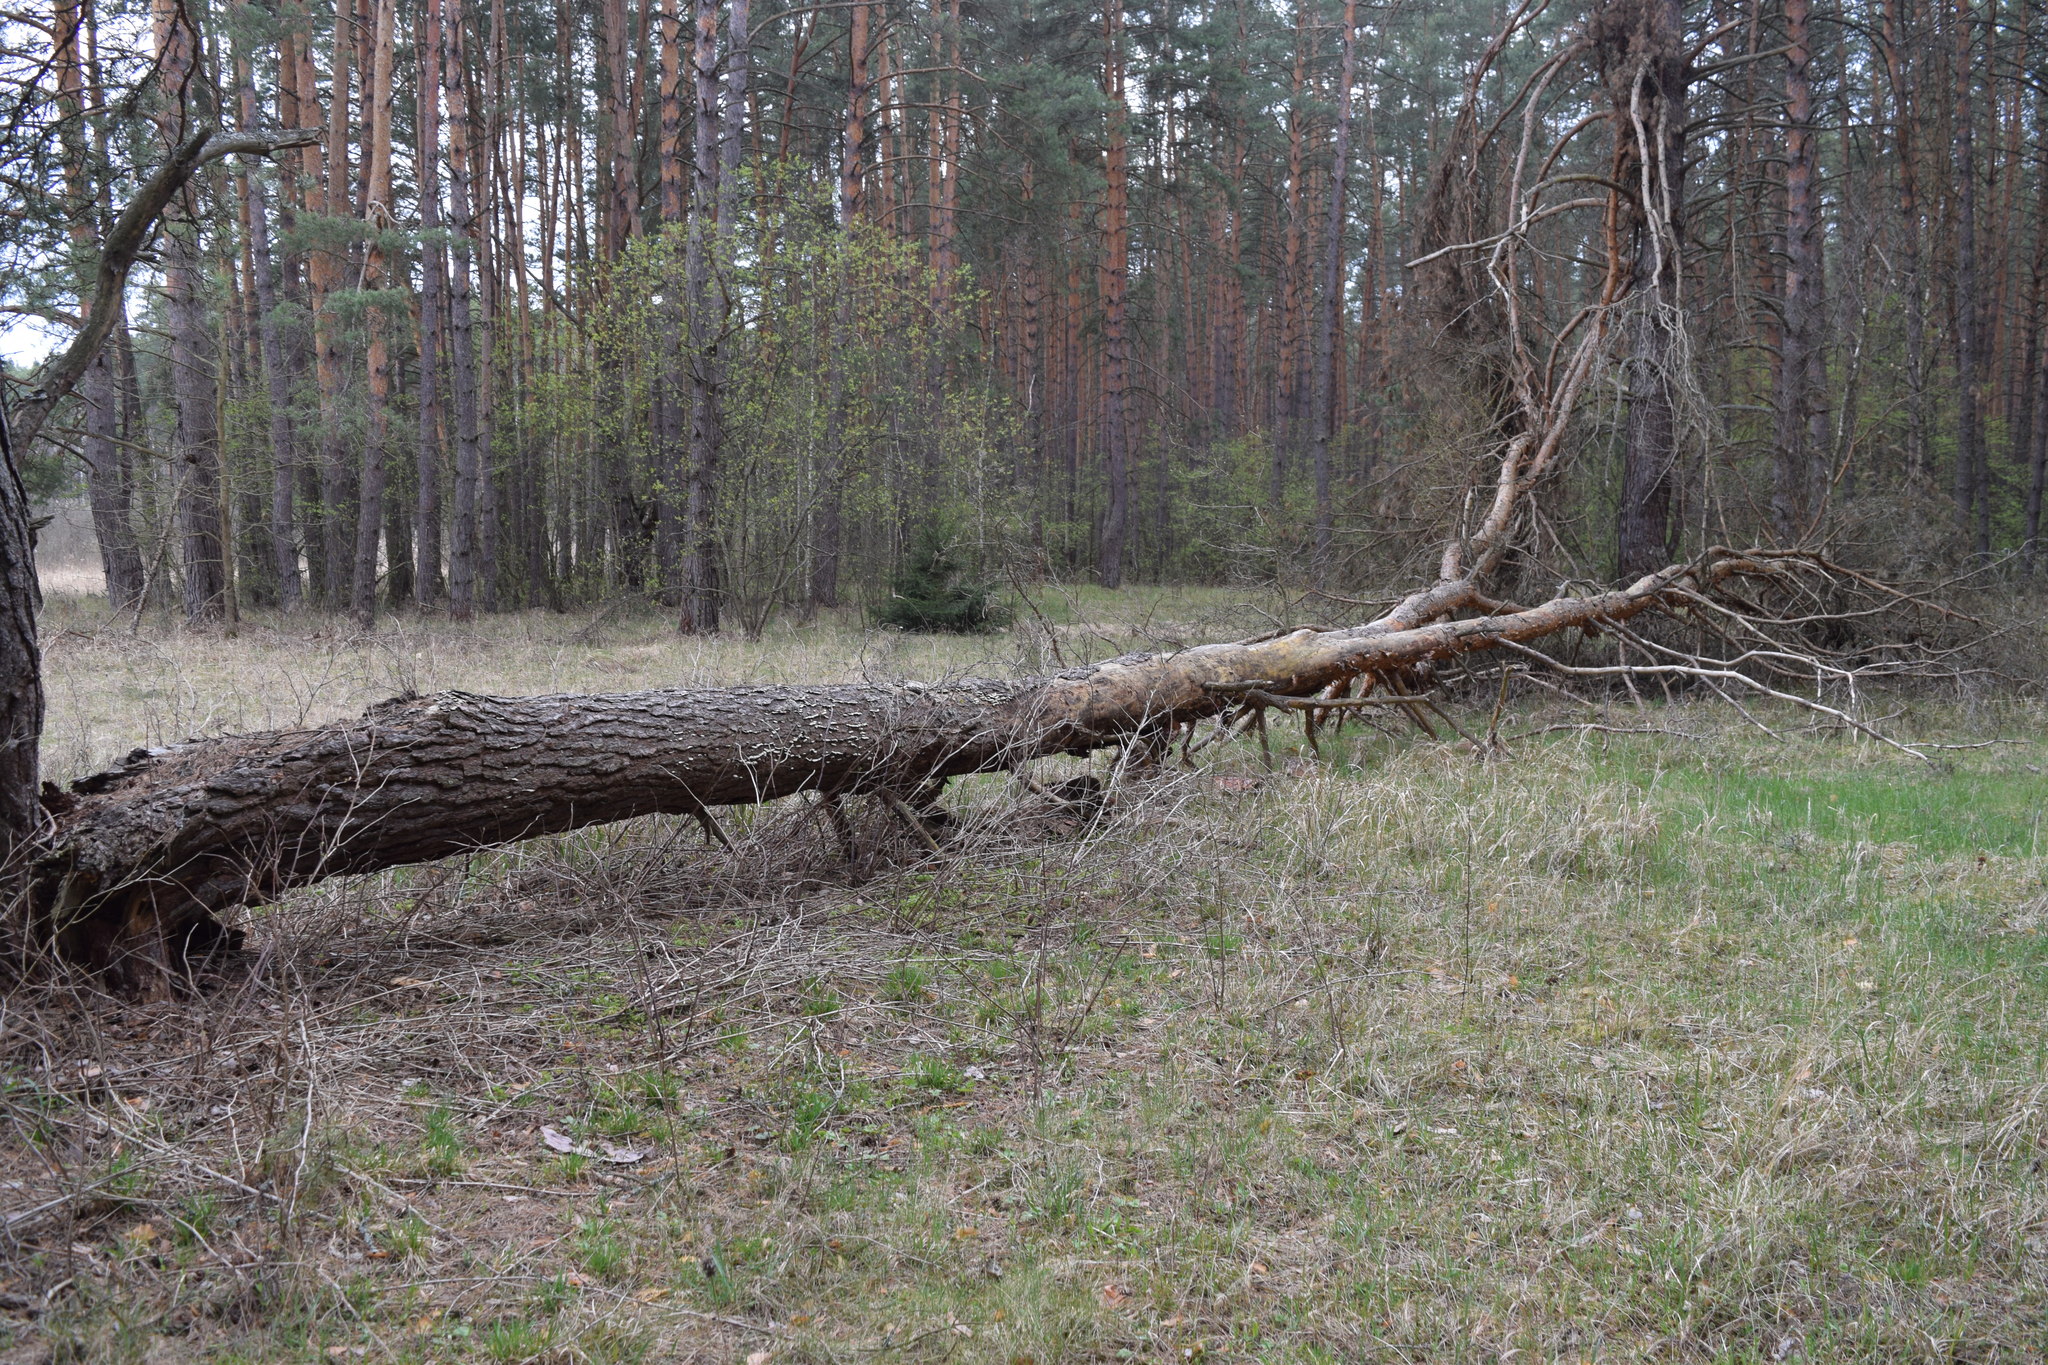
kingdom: Plantae
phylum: Tracheophyta
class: Pinopsida
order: Pinales
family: Pinaceae
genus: Pinus
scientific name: Pinus sylvestris
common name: Scots pine
